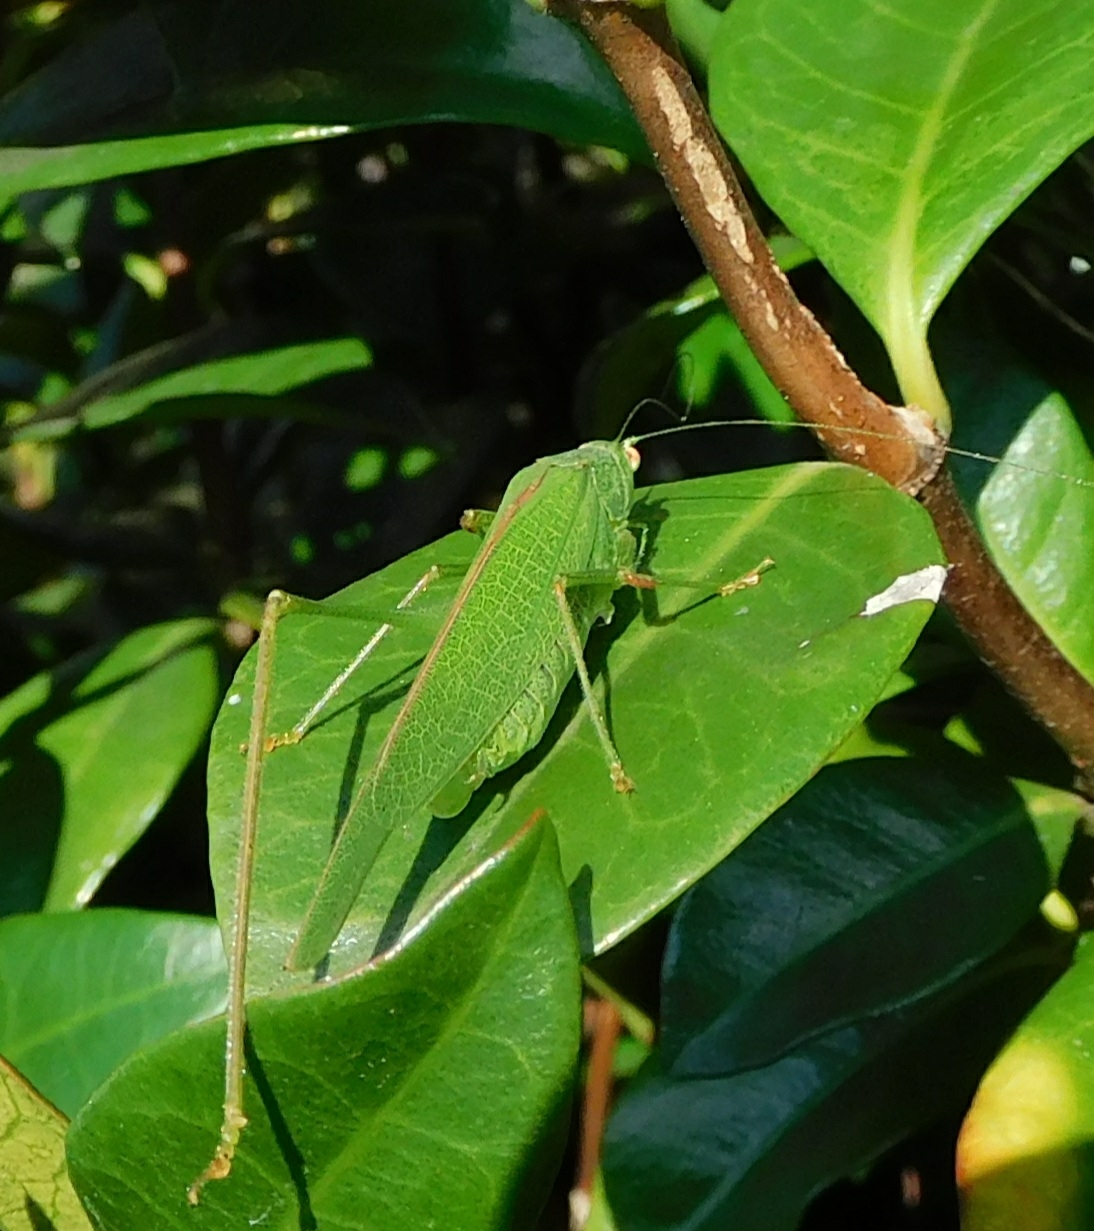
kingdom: Animalia
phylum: Arthropoda
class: Insecta
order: Orthoptera
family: Tettigoniidae
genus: Phaneroptera
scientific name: Phaneroptera nana
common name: Southern sickle bush-cricket
